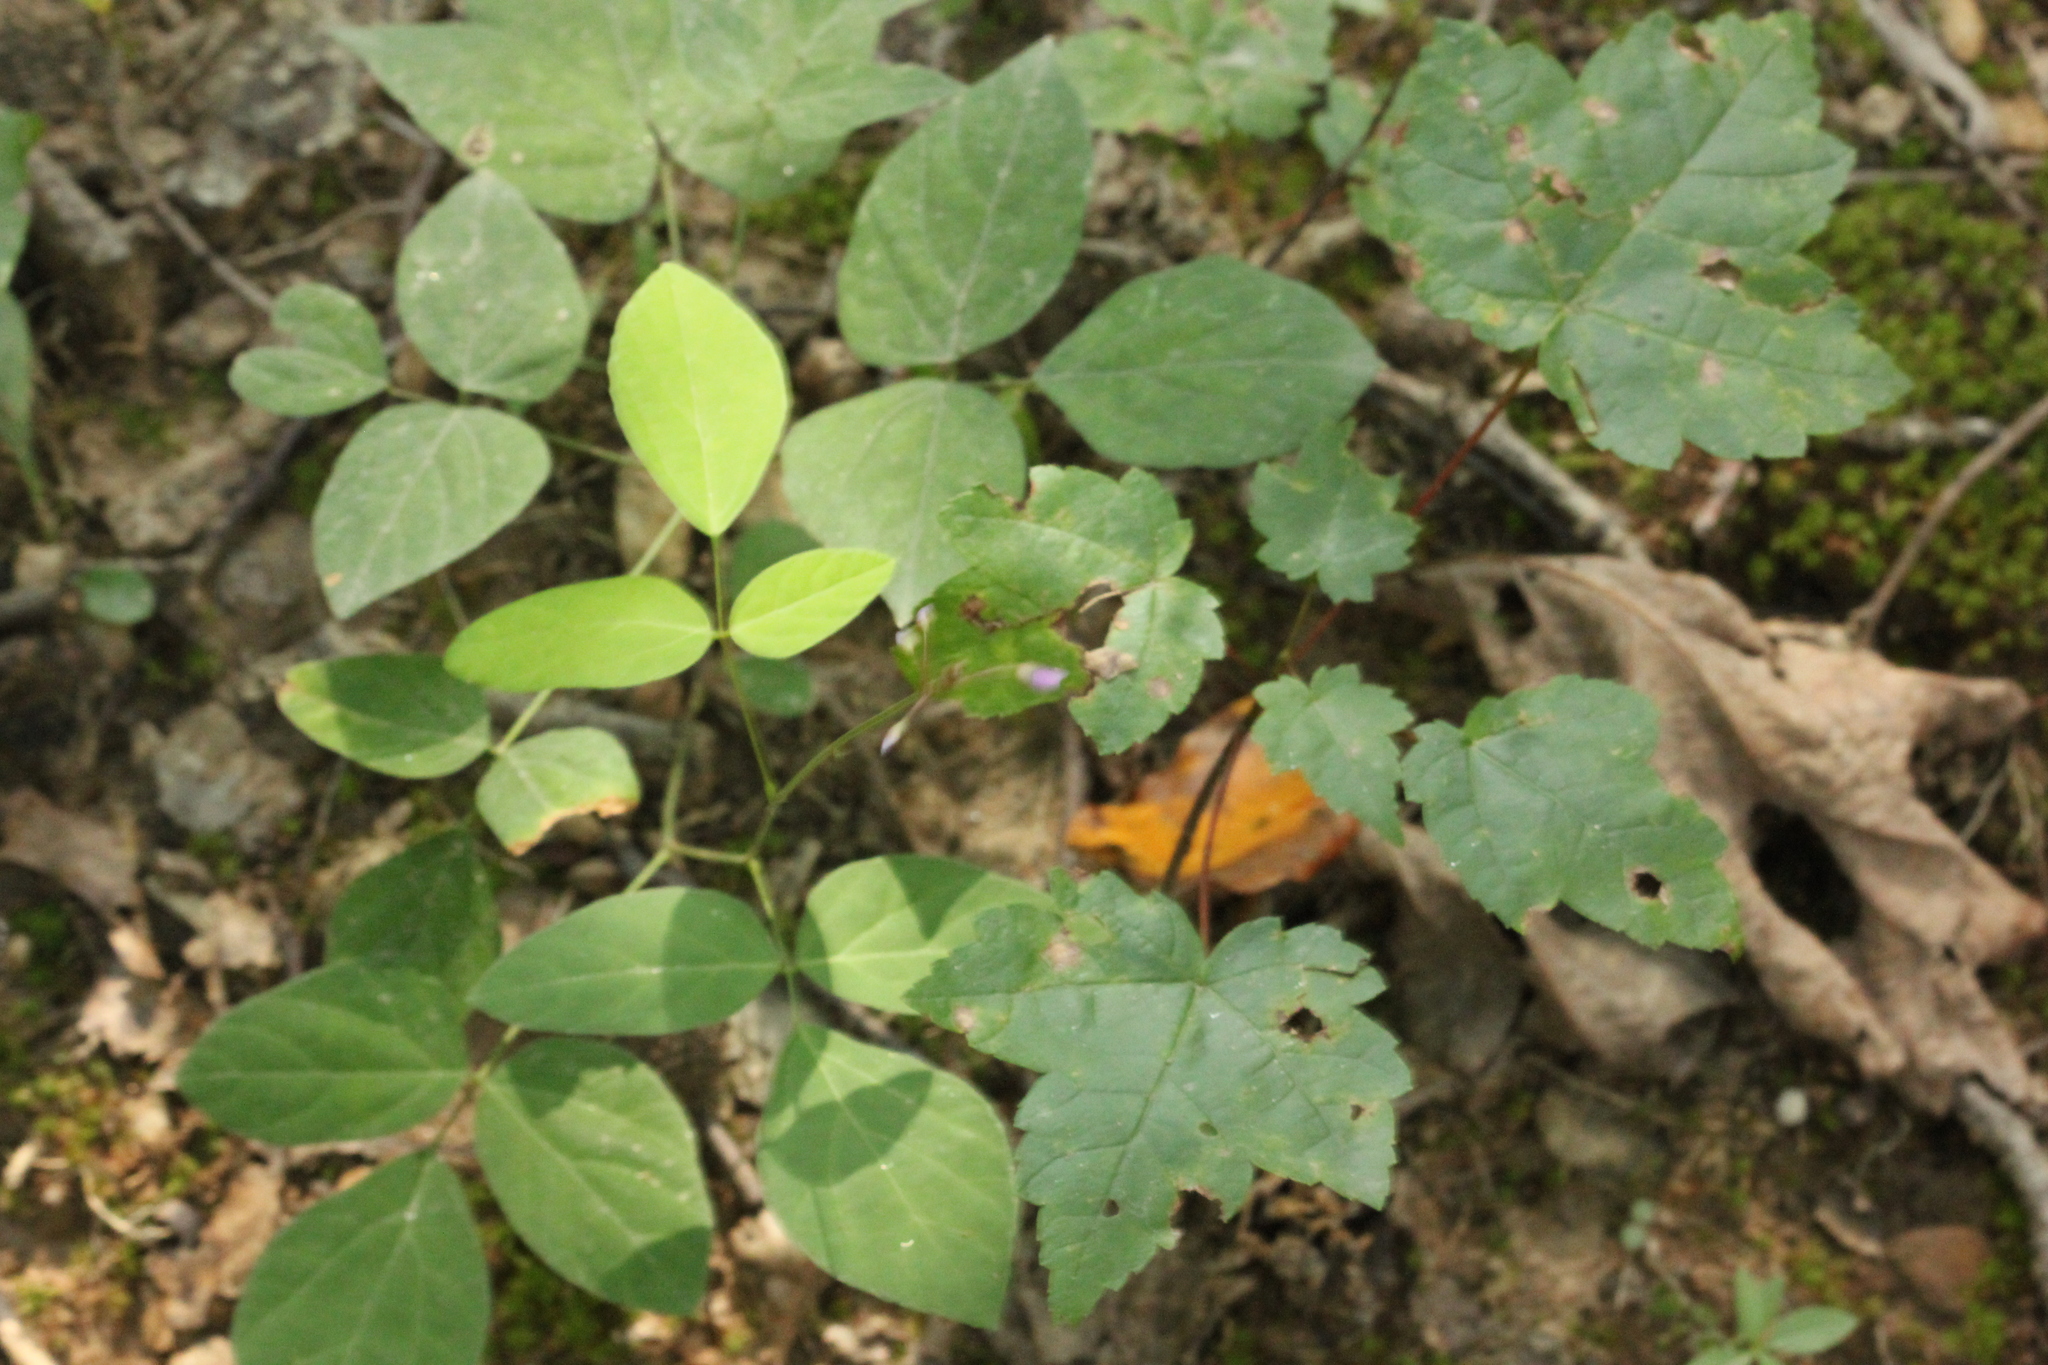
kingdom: Plantae
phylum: Tracheophyta
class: Magnoliopsida
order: Fabales
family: Fabaceae
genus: Hylodesmum
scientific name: Hylodesmum nudiflorum
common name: Bare-stemmed tick-trefoil
